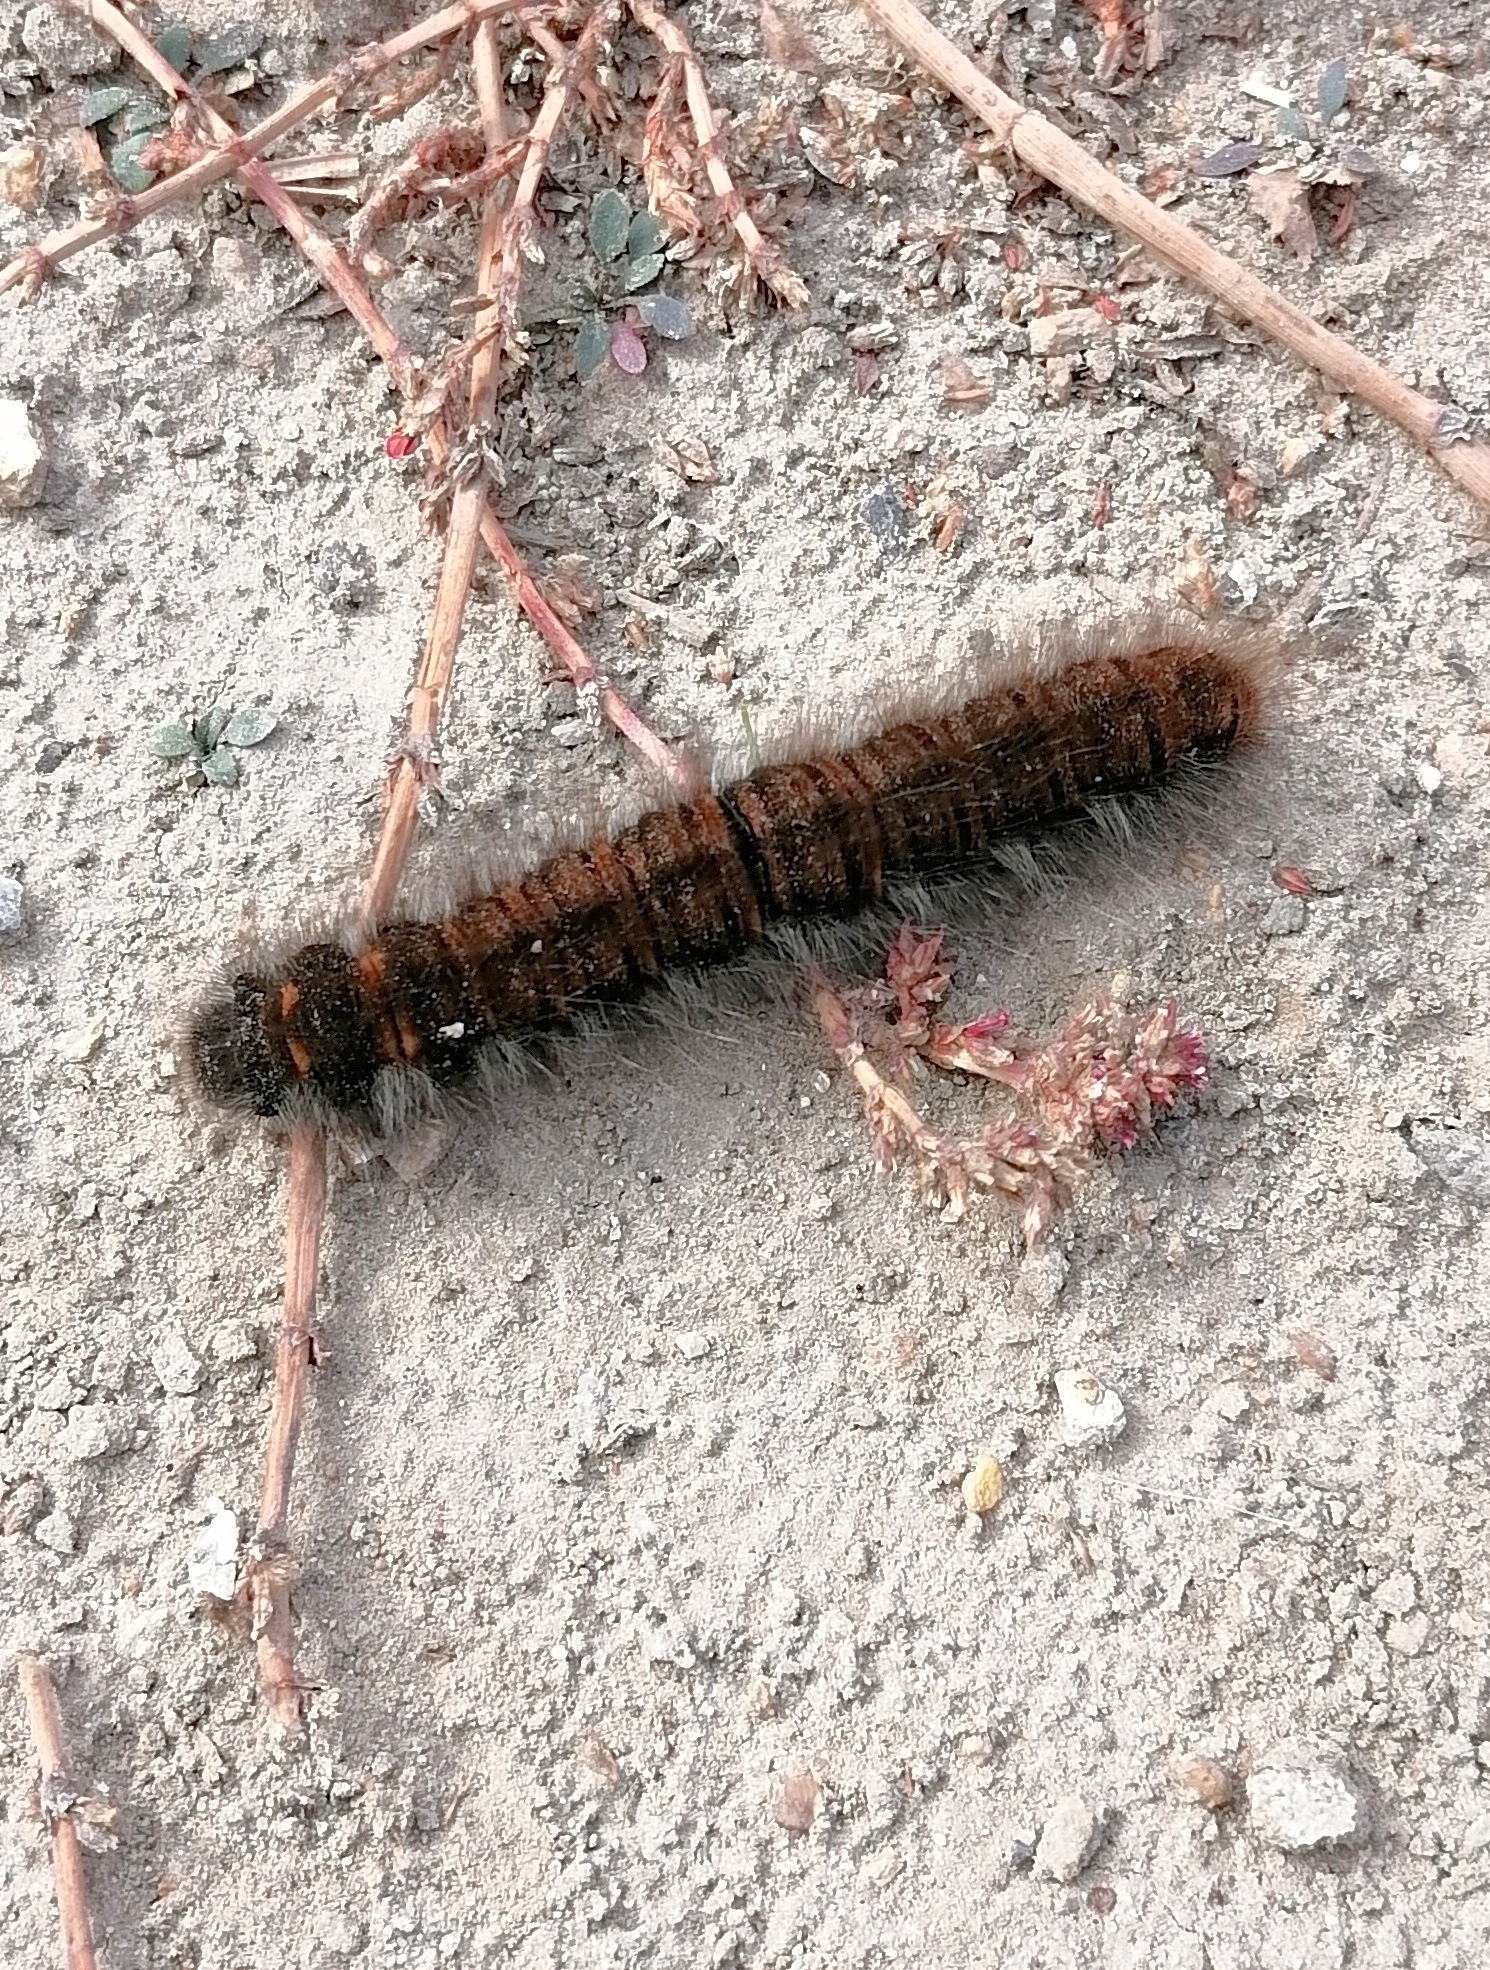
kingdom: Animalia
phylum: Arthropoda
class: Insecta
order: Lepidoptera
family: Lasiocampidae
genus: Macrothylacia
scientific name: Macrothylacia rubi
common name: Fox moth
